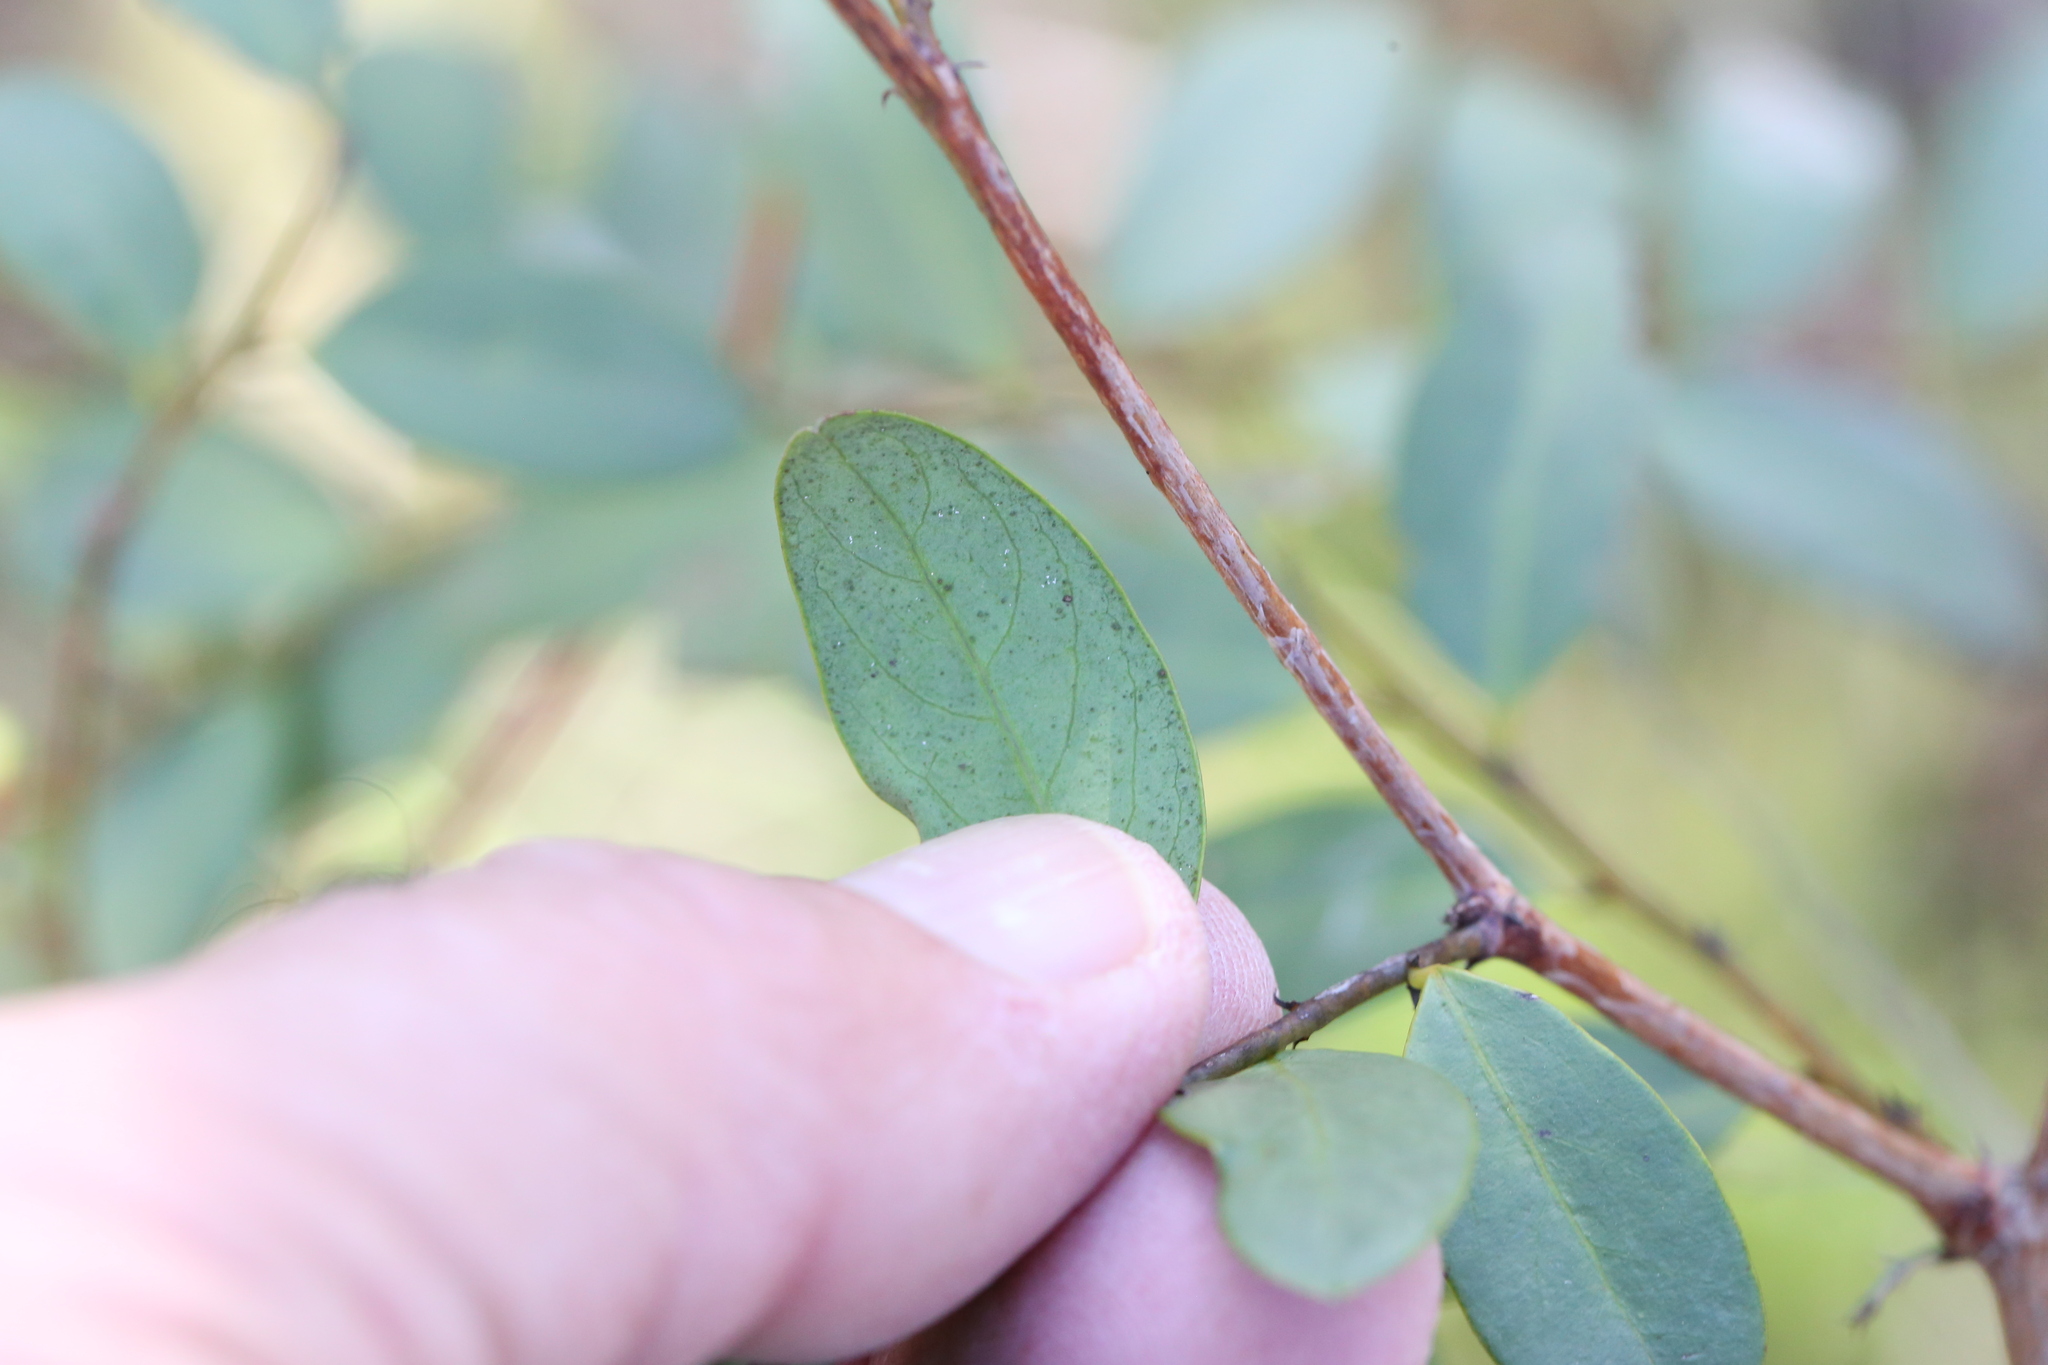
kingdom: Plantae
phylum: Tracheophyta
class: Magnoliopsida
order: Malpighiales
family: Phyllanthaceae
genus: Breynia
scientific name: Breynia oblongifolia
